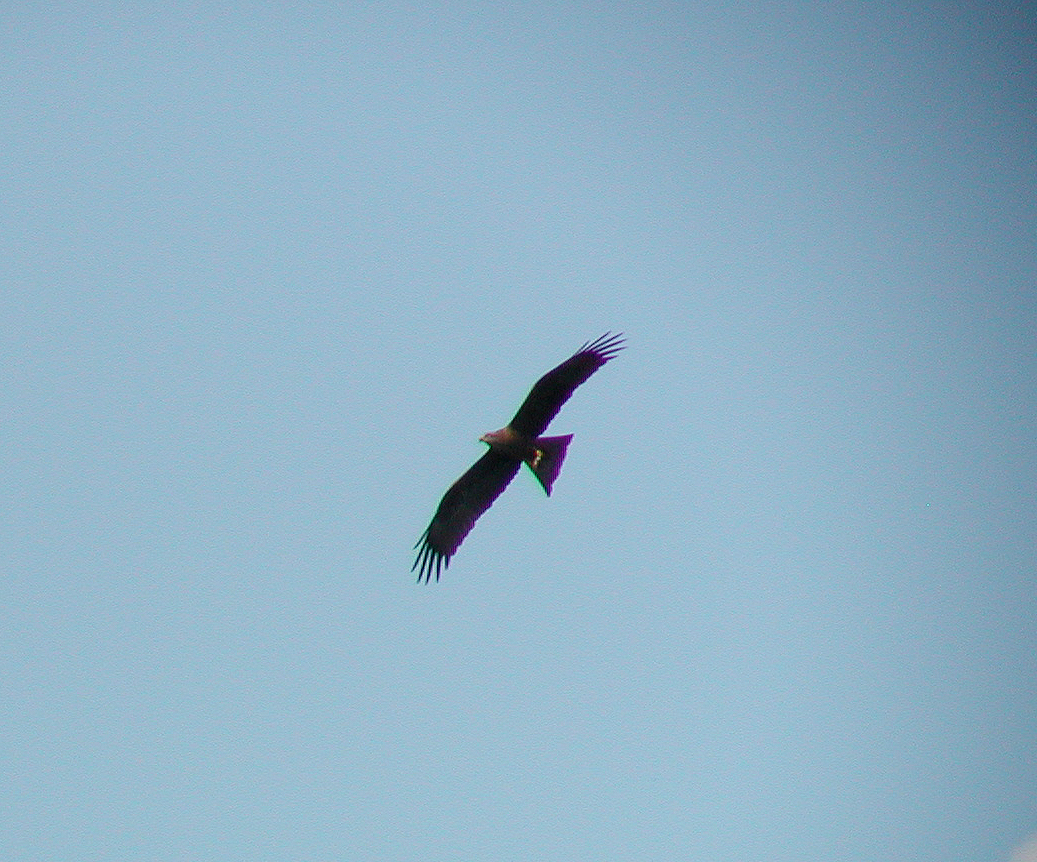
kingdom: Animalia
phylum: Chordata
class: Aves
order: Accipitriformes
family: Accipitridae
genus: Milvus
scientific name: Milvus migrans
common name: Black kite
